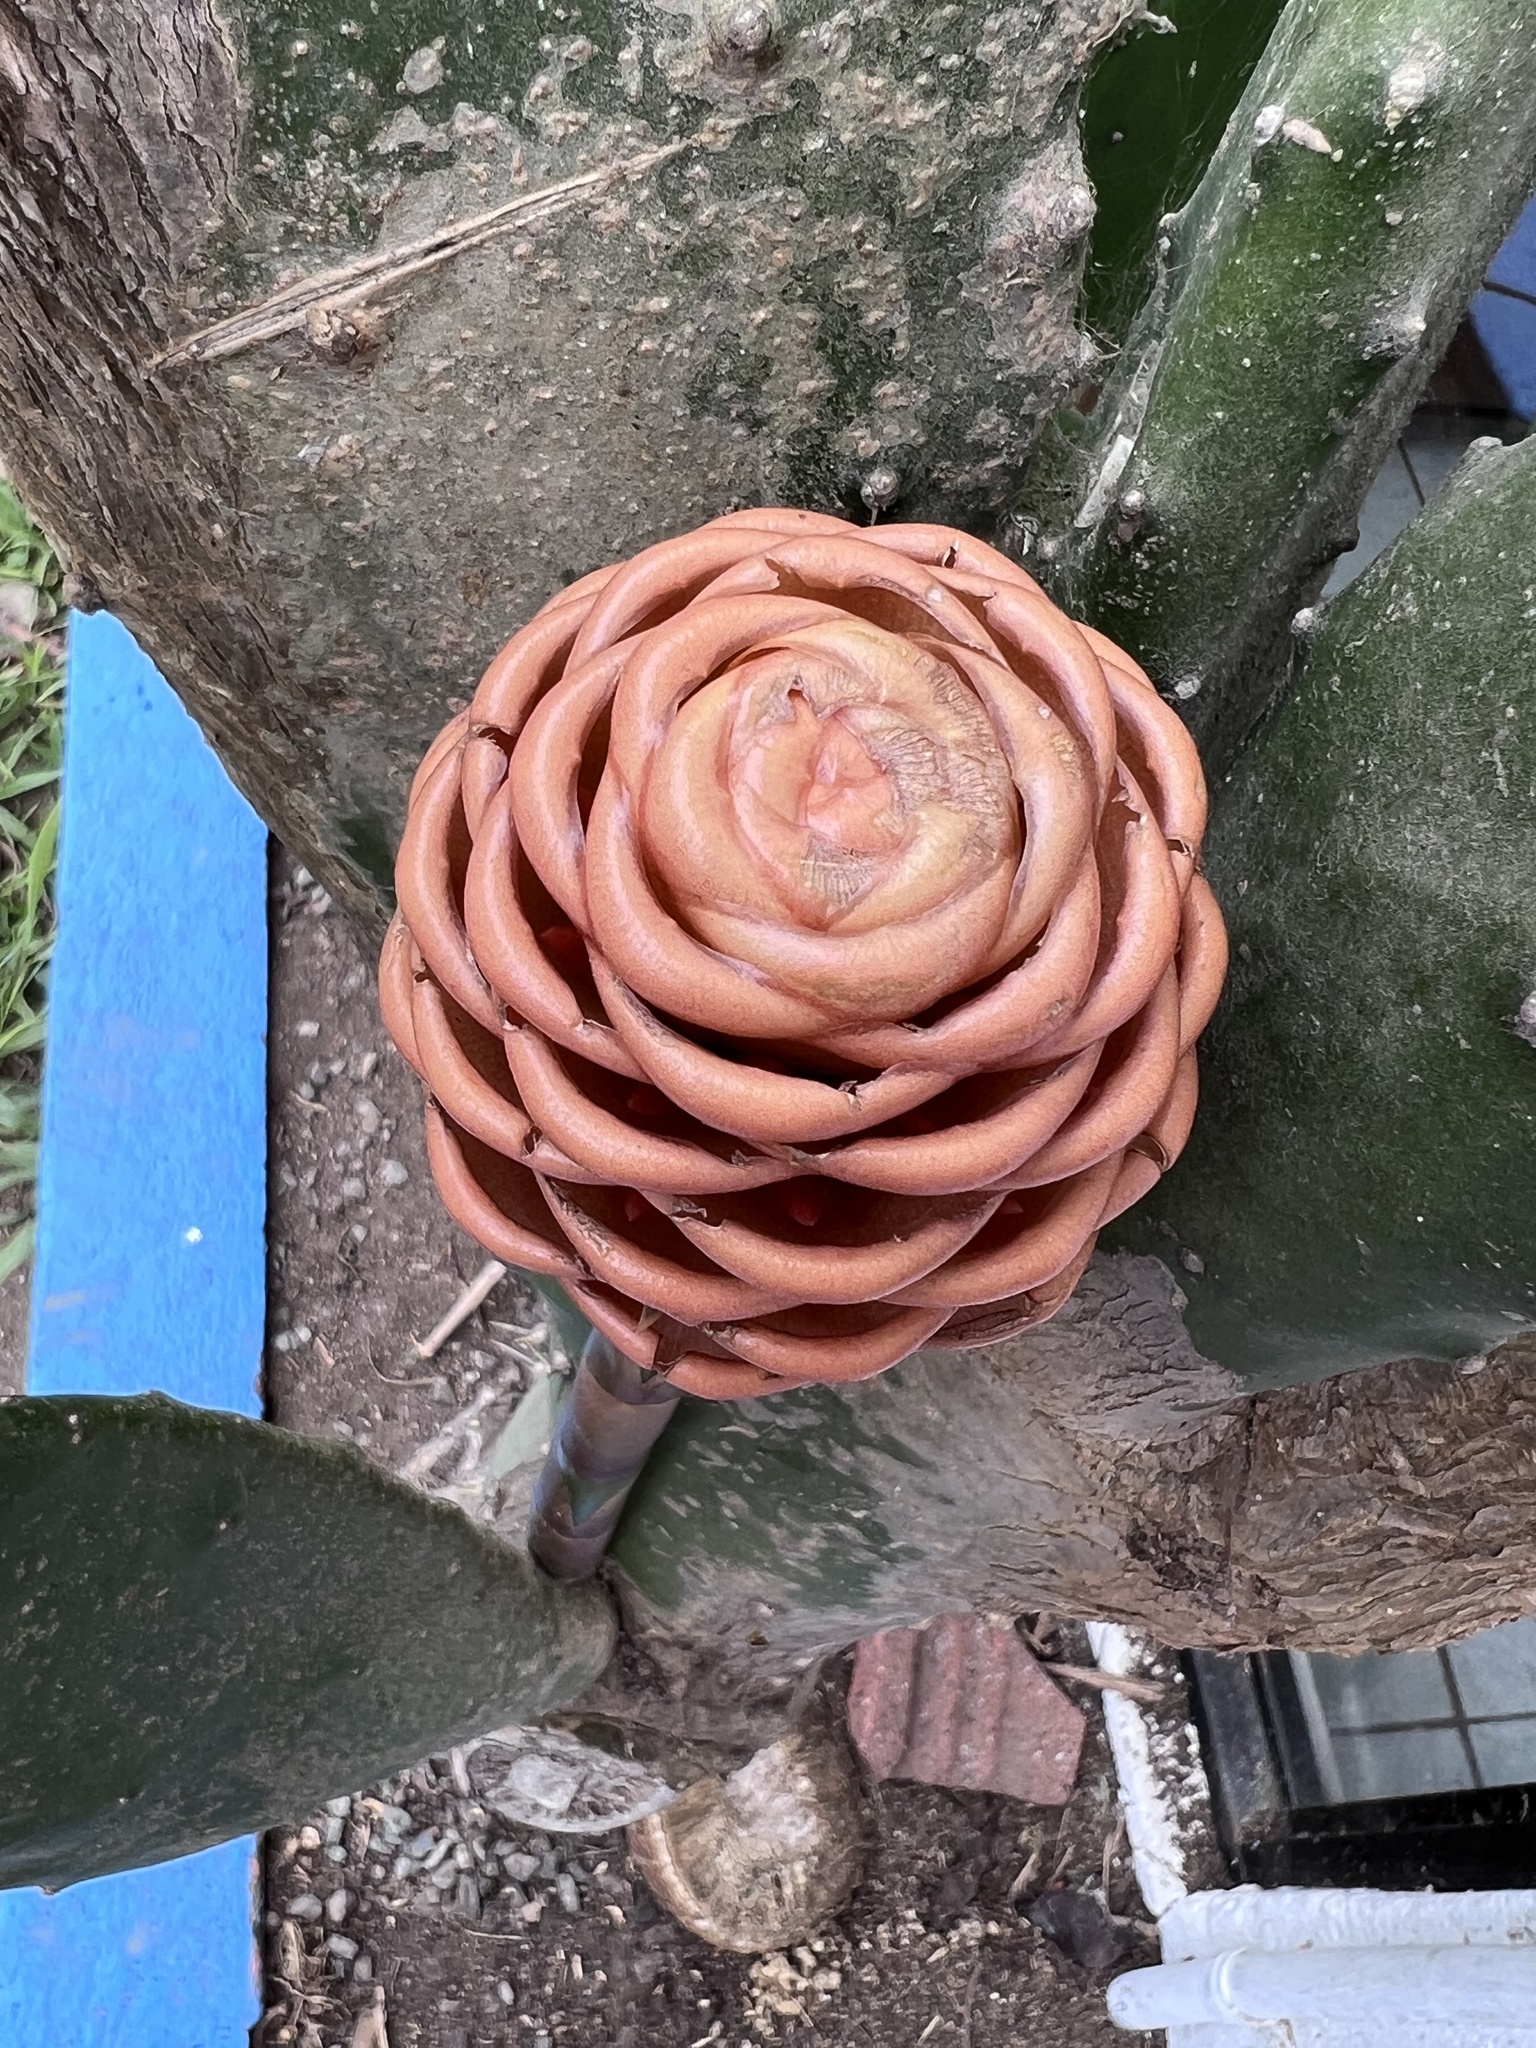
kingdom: Plantae
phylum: Tracheophyta
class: Liliopsida
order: Zingiberales
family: Zingiberaceae
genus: Zingiber
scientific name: Zingiber spectabile
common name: Beehive ginger
